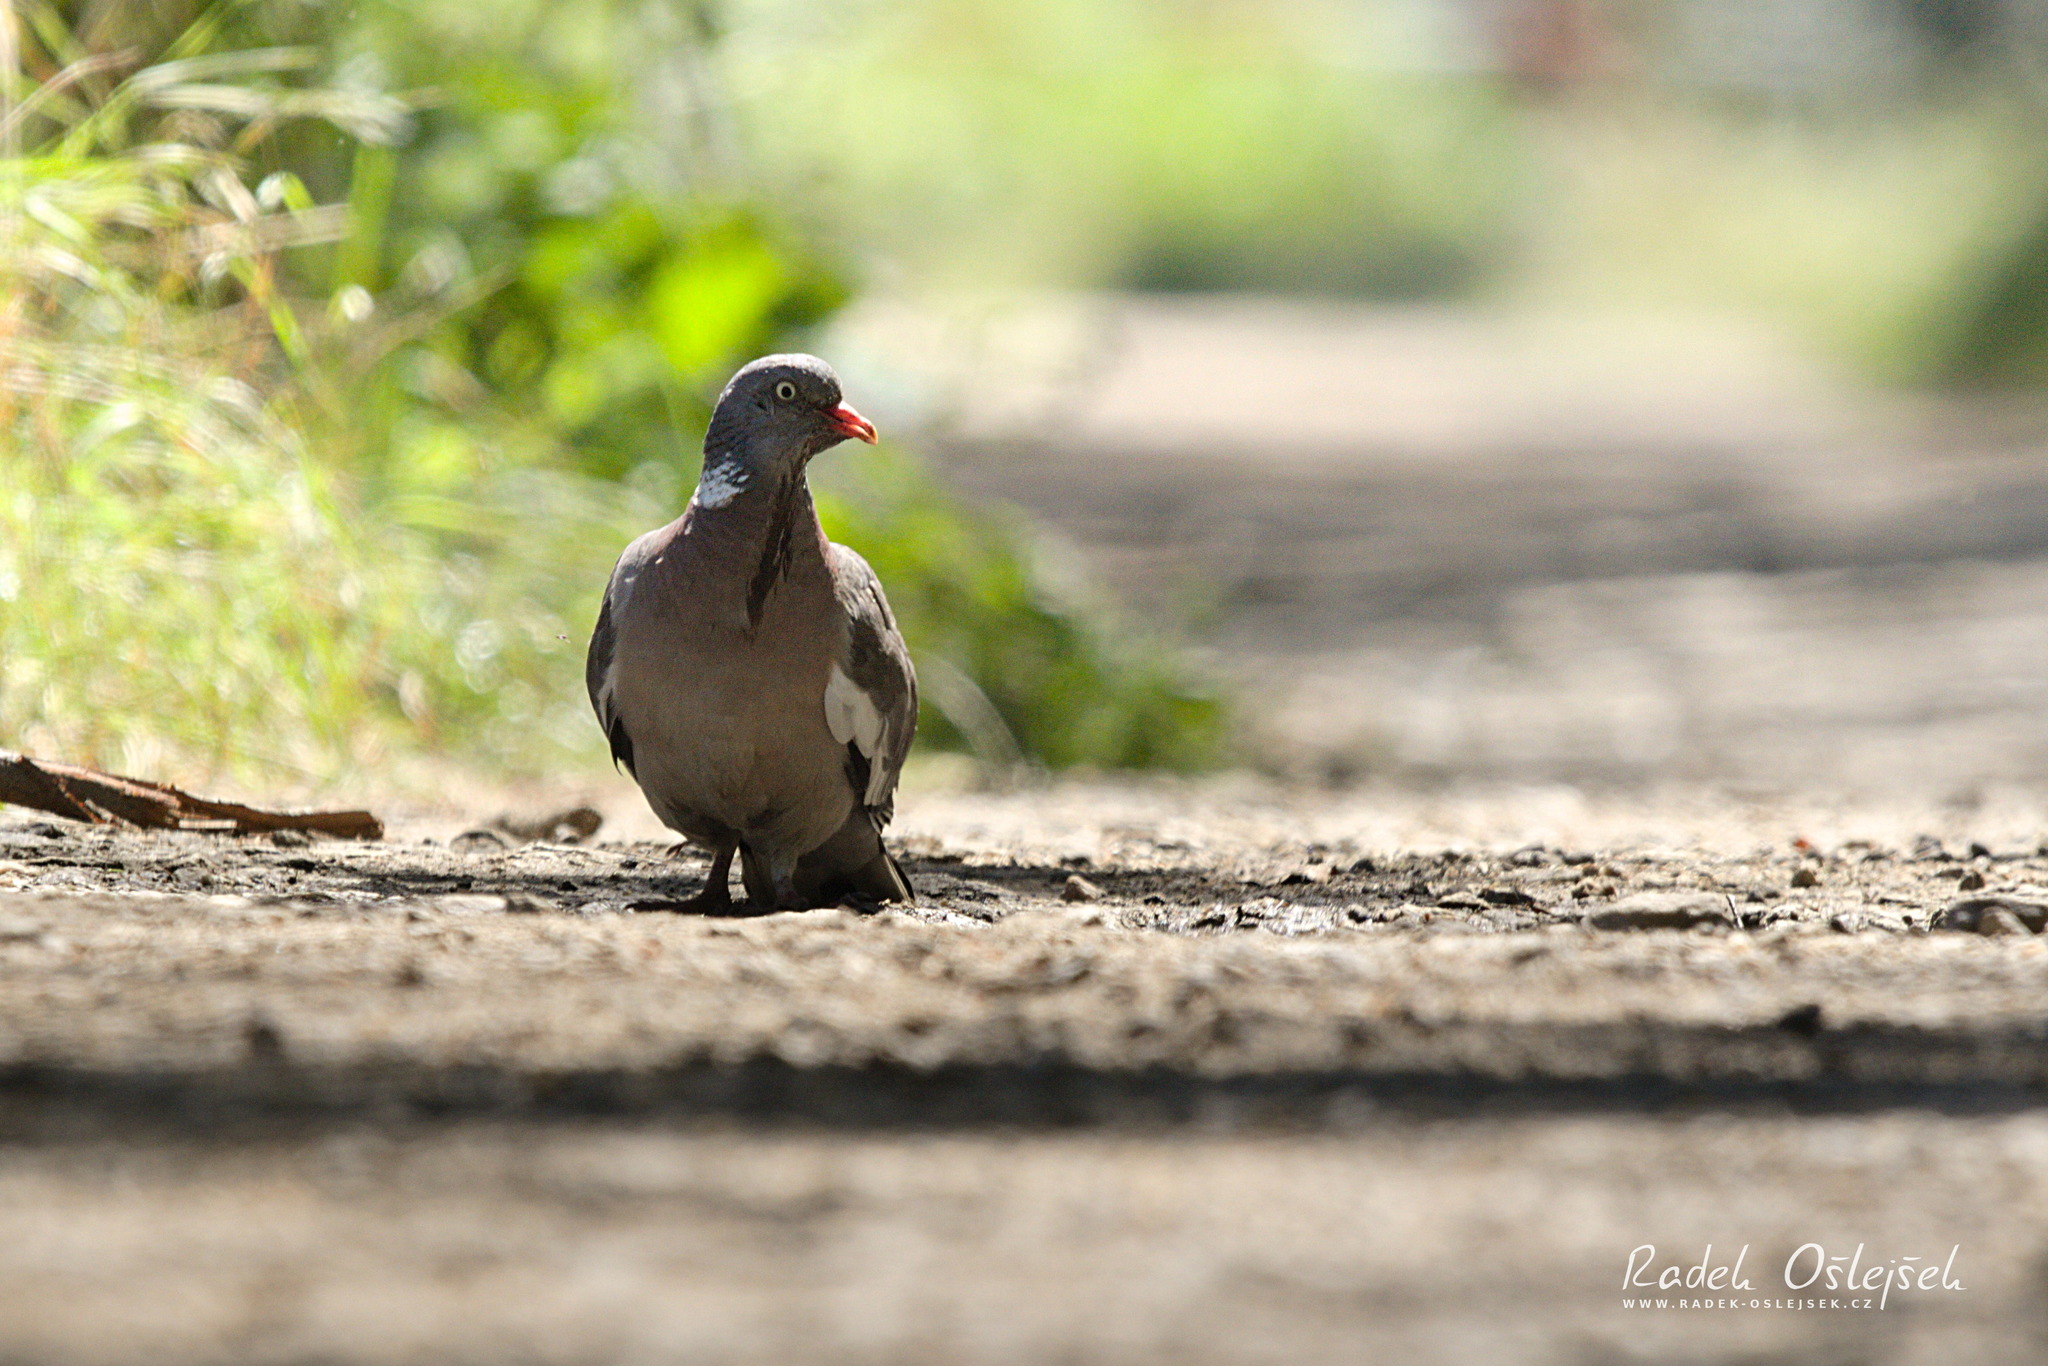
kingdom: Animalia
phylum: Chordata
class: Aves
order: Columbiformes
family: Columbidae
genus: Columba
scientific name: Columba palumbus
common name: Common wood pigeon
